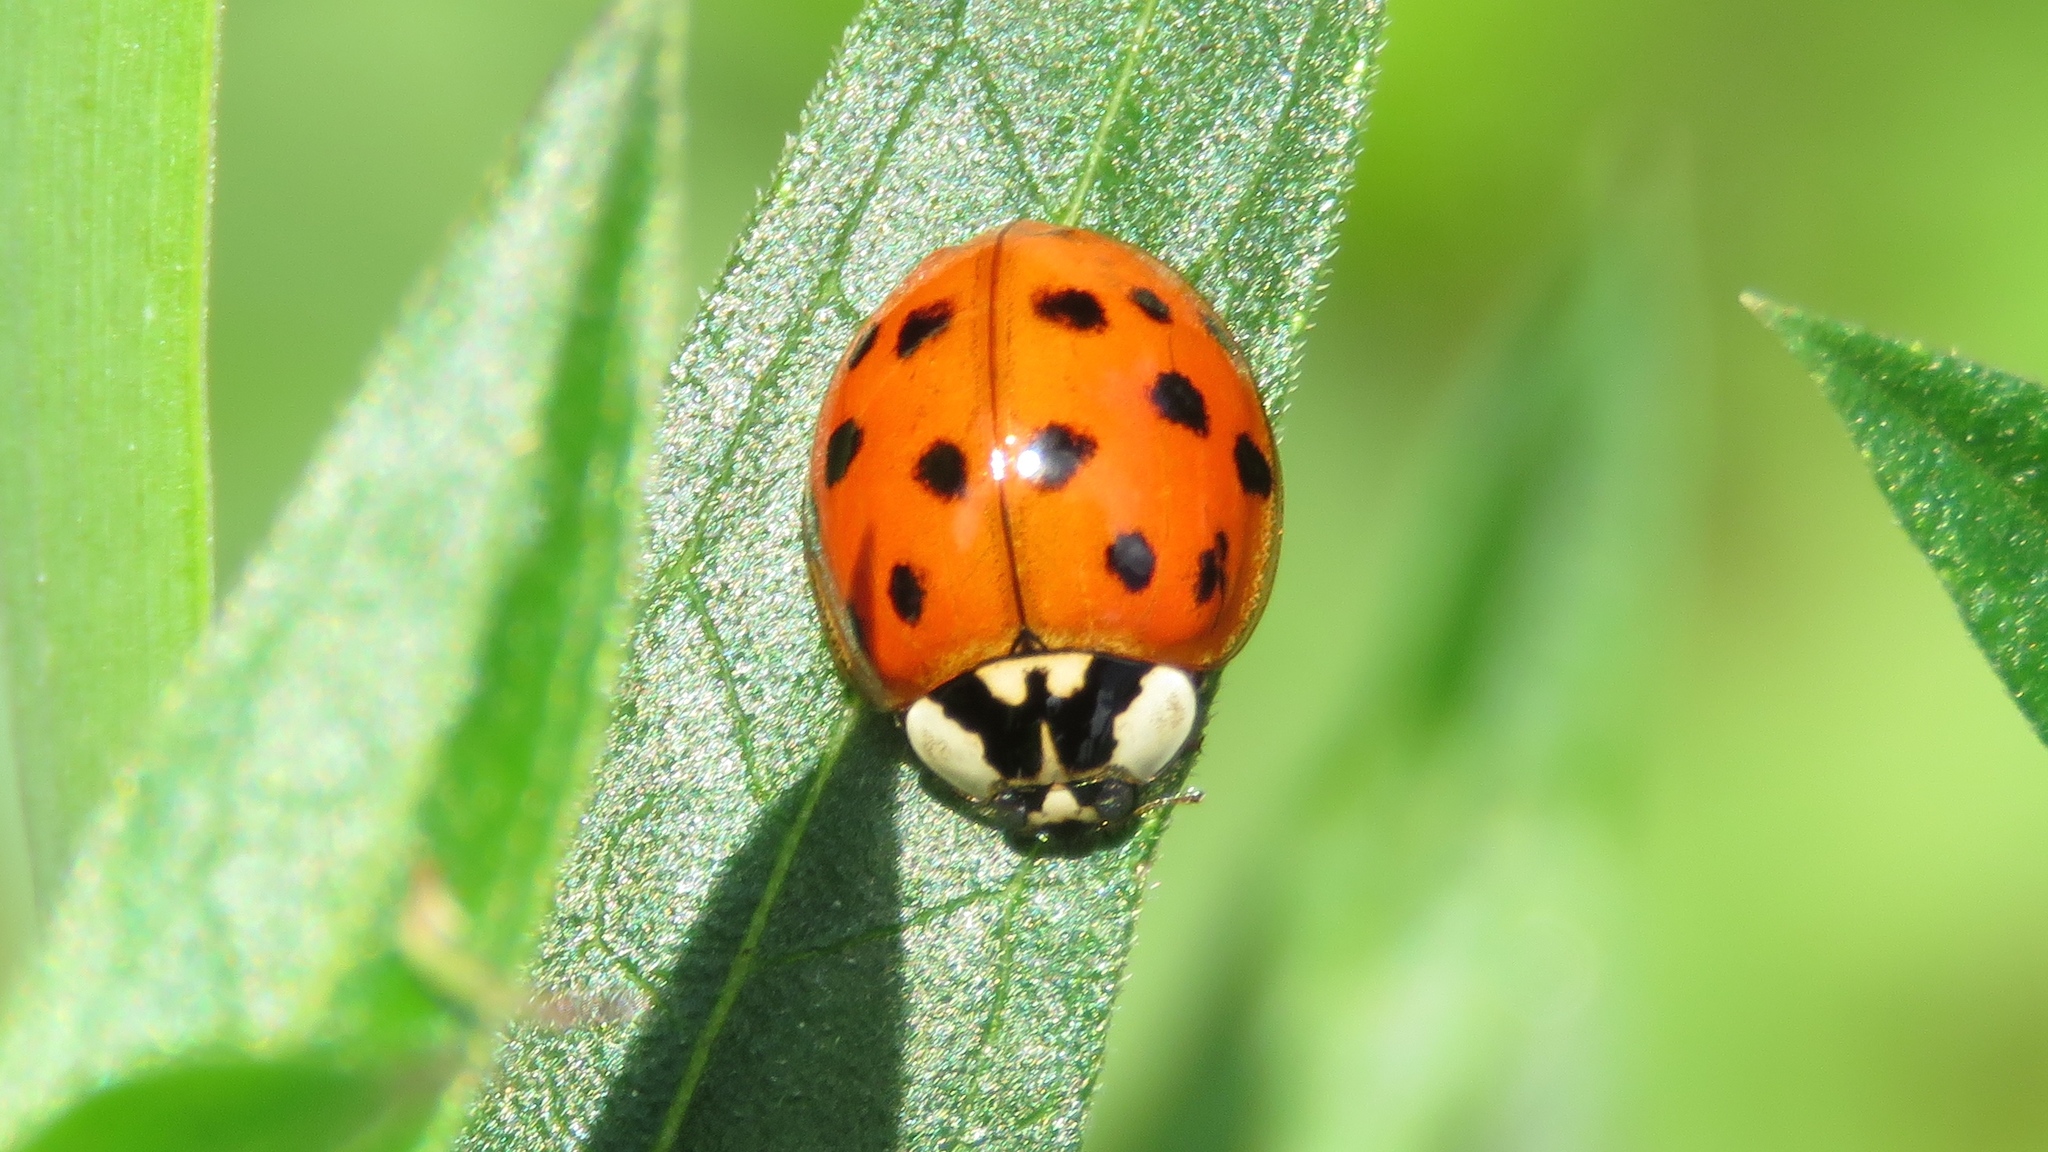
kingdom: Animalia
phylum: Arthropoda
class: Insecta
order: Coleoptera
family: Coccinellidae
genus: Harmonia
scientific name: Harmonia axyridis
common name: Harlequin ladybird
